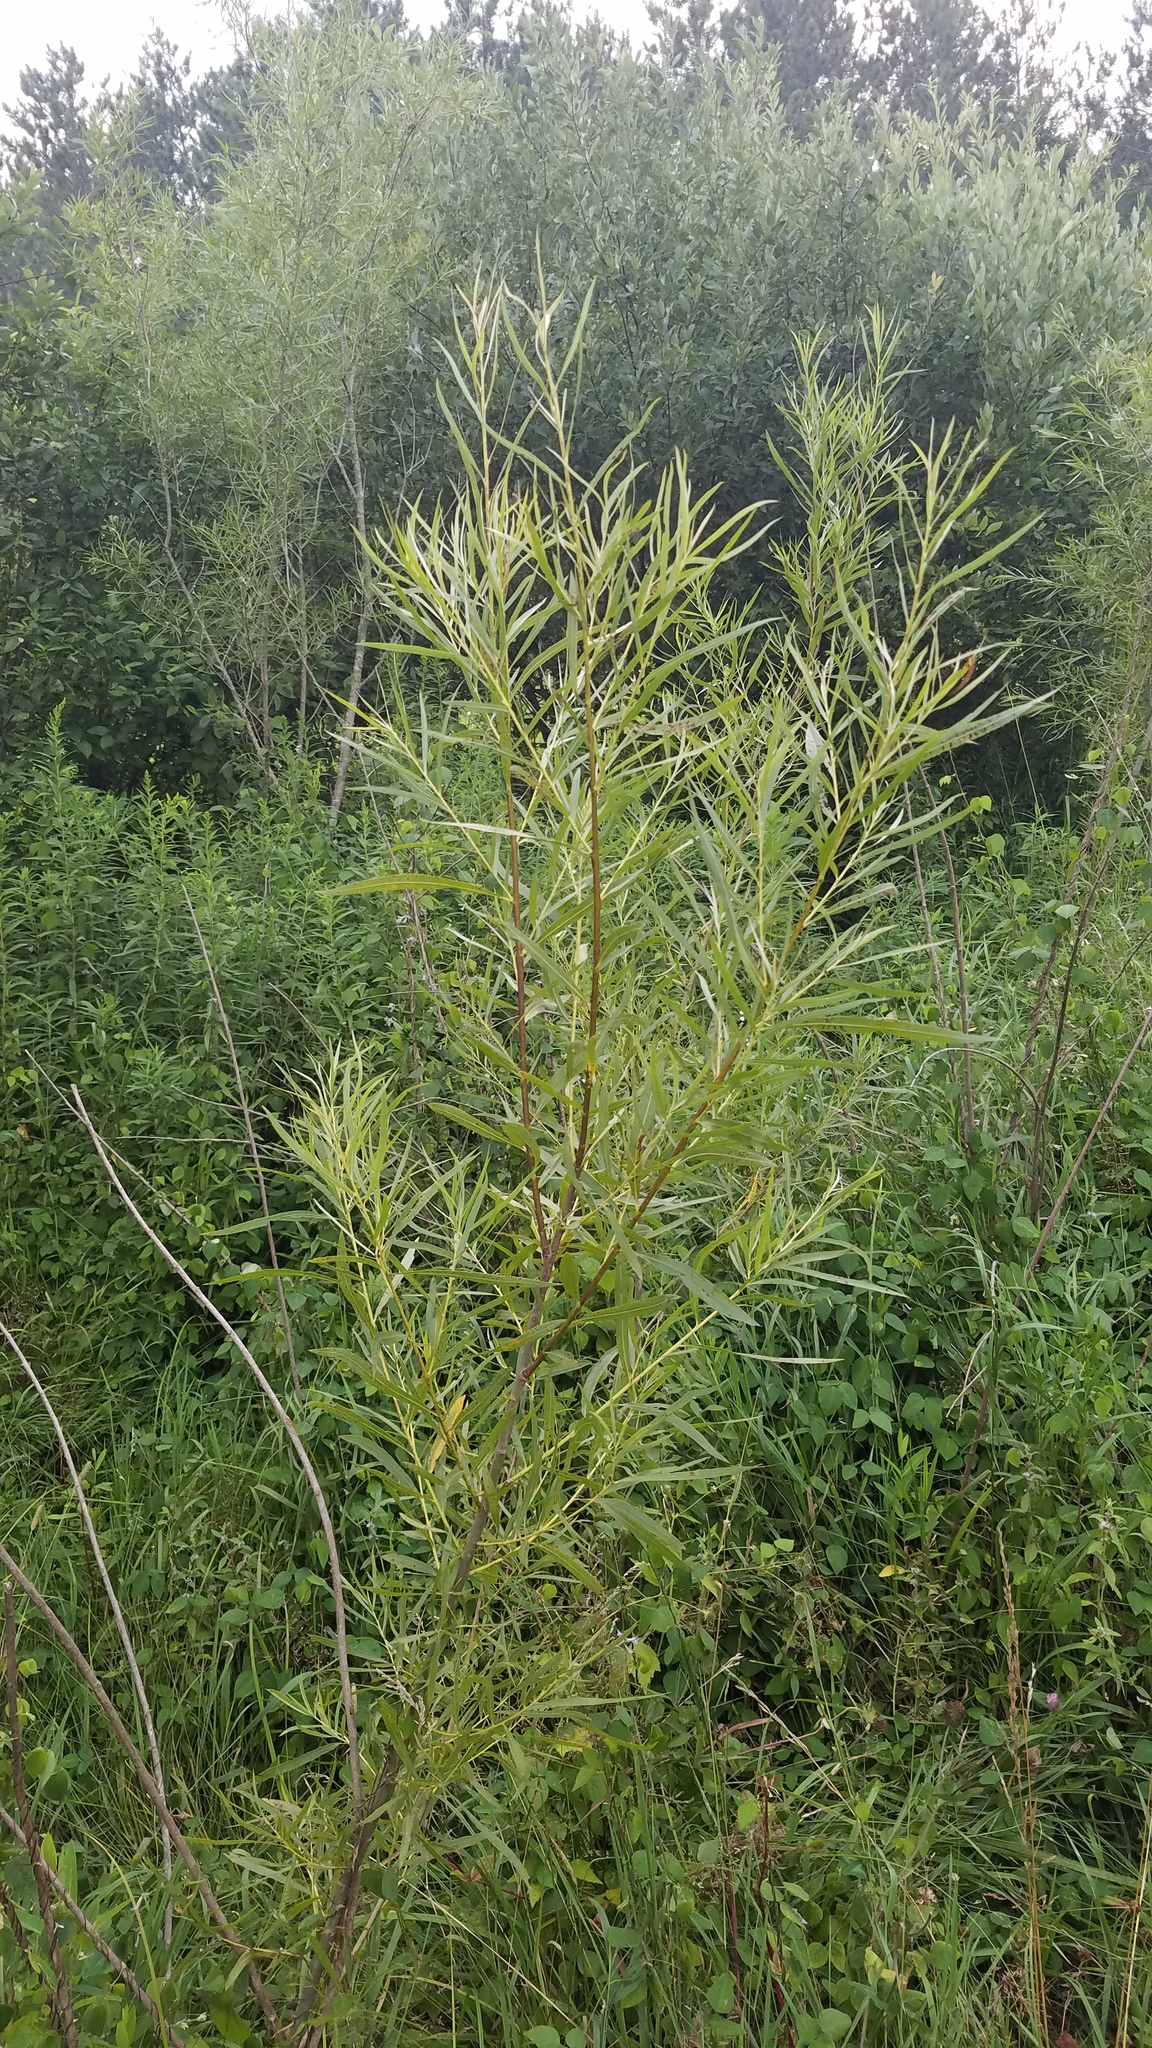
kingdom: Plantae
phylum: Tracheophyta
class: Magnoliopsida
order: Malpighiales
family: Salicaceae
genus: Salix
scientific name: Salix interior
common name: Sandbar willow
